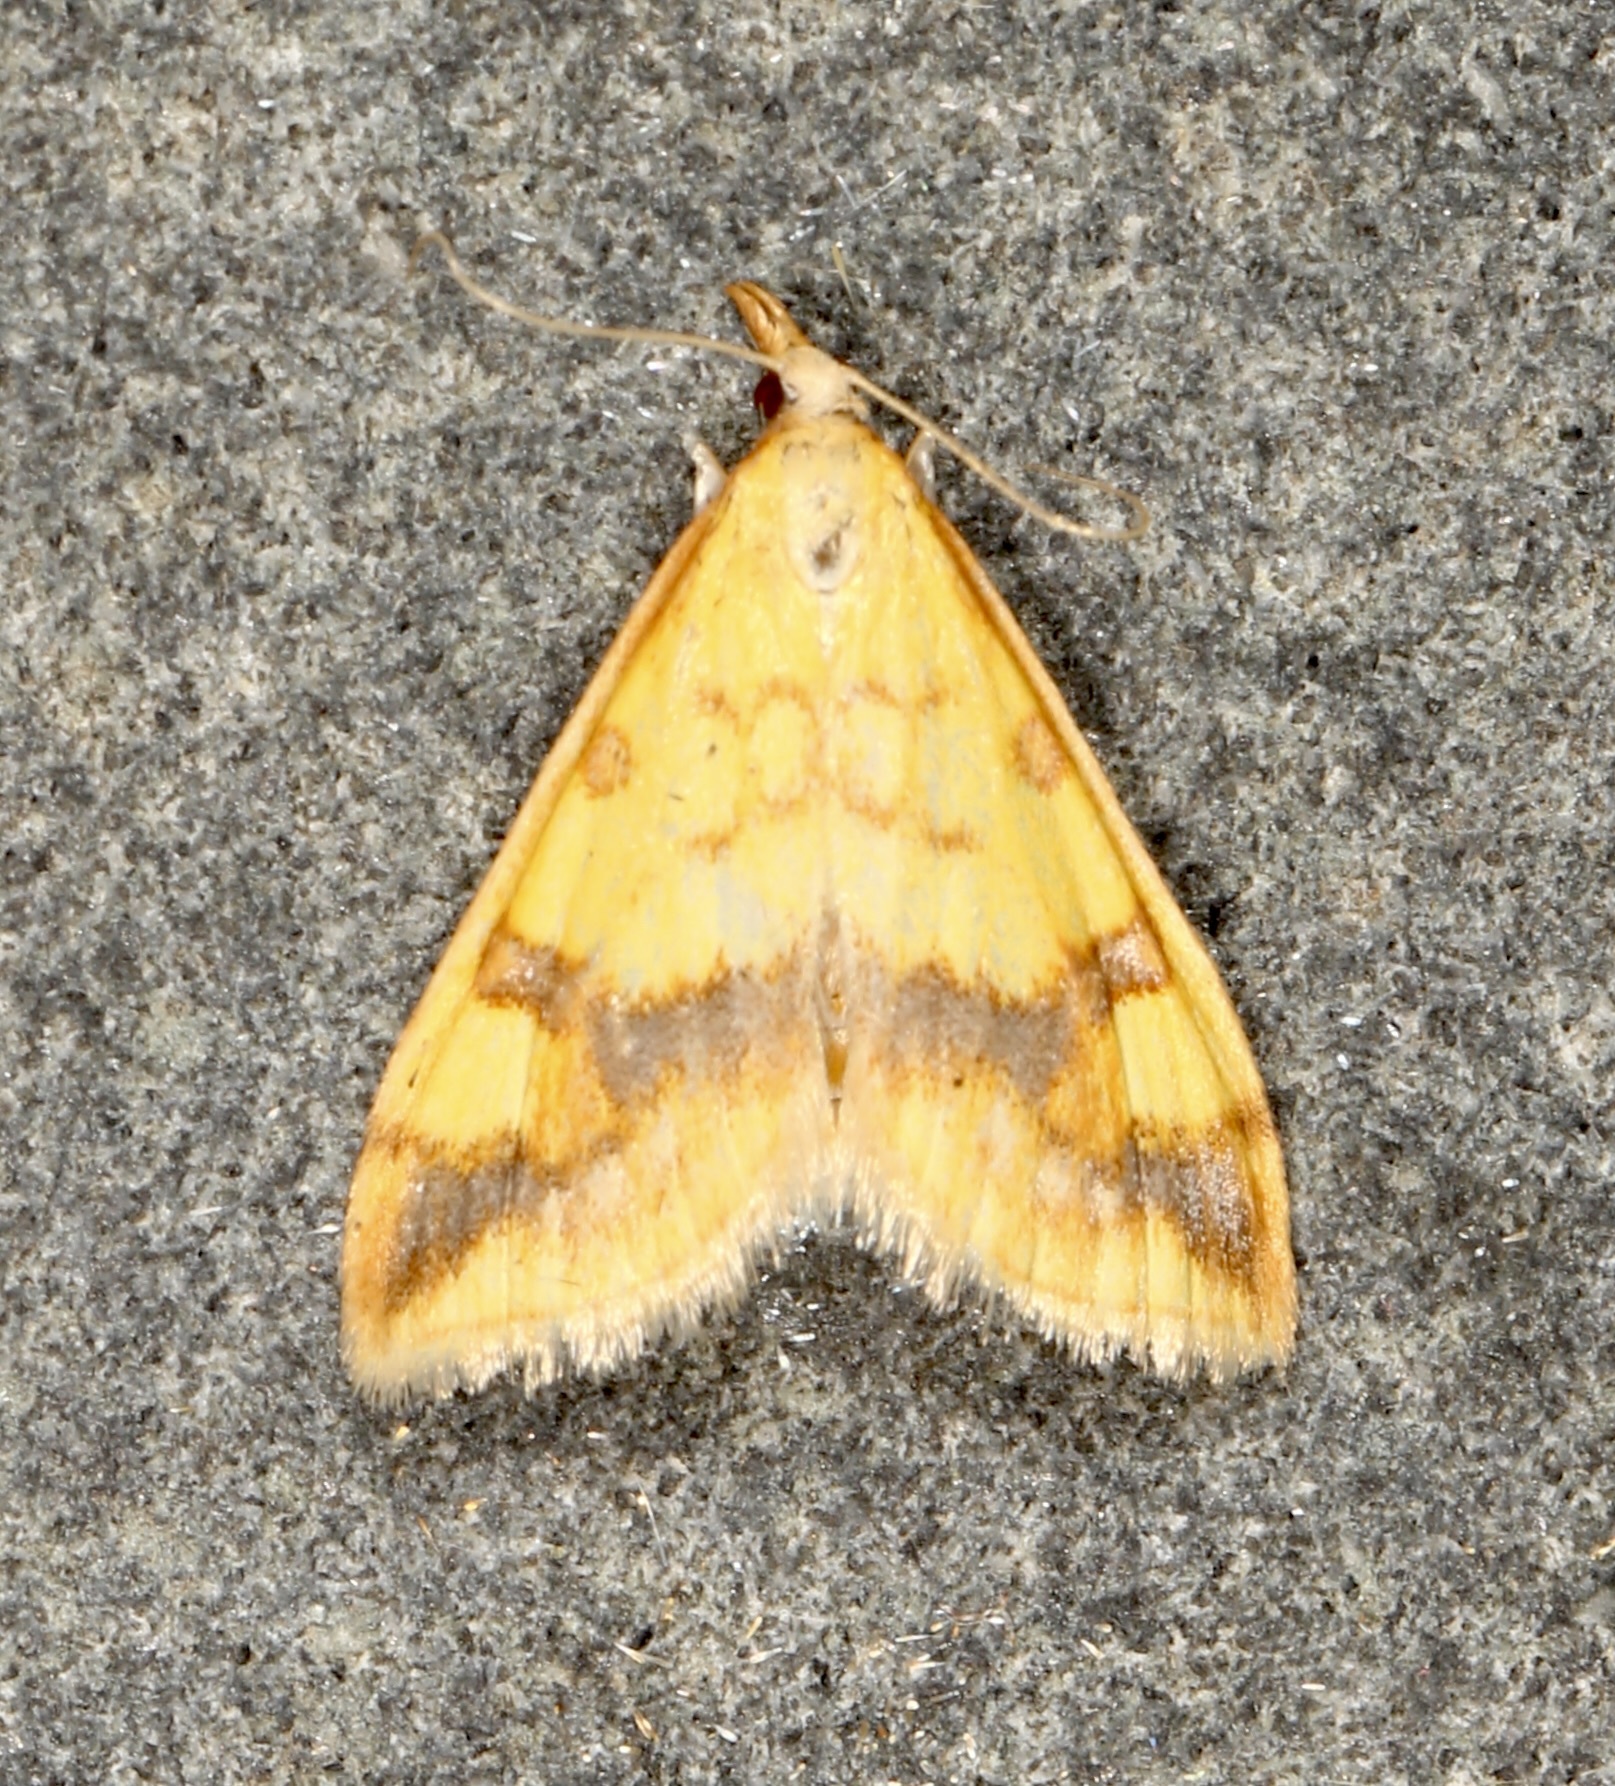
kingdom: Animalia
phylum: Arthropoda
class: Insecta
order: Lepidoptera
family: Crambidae
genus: Choristostigma
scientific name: Choristostigma plumbosignalis
